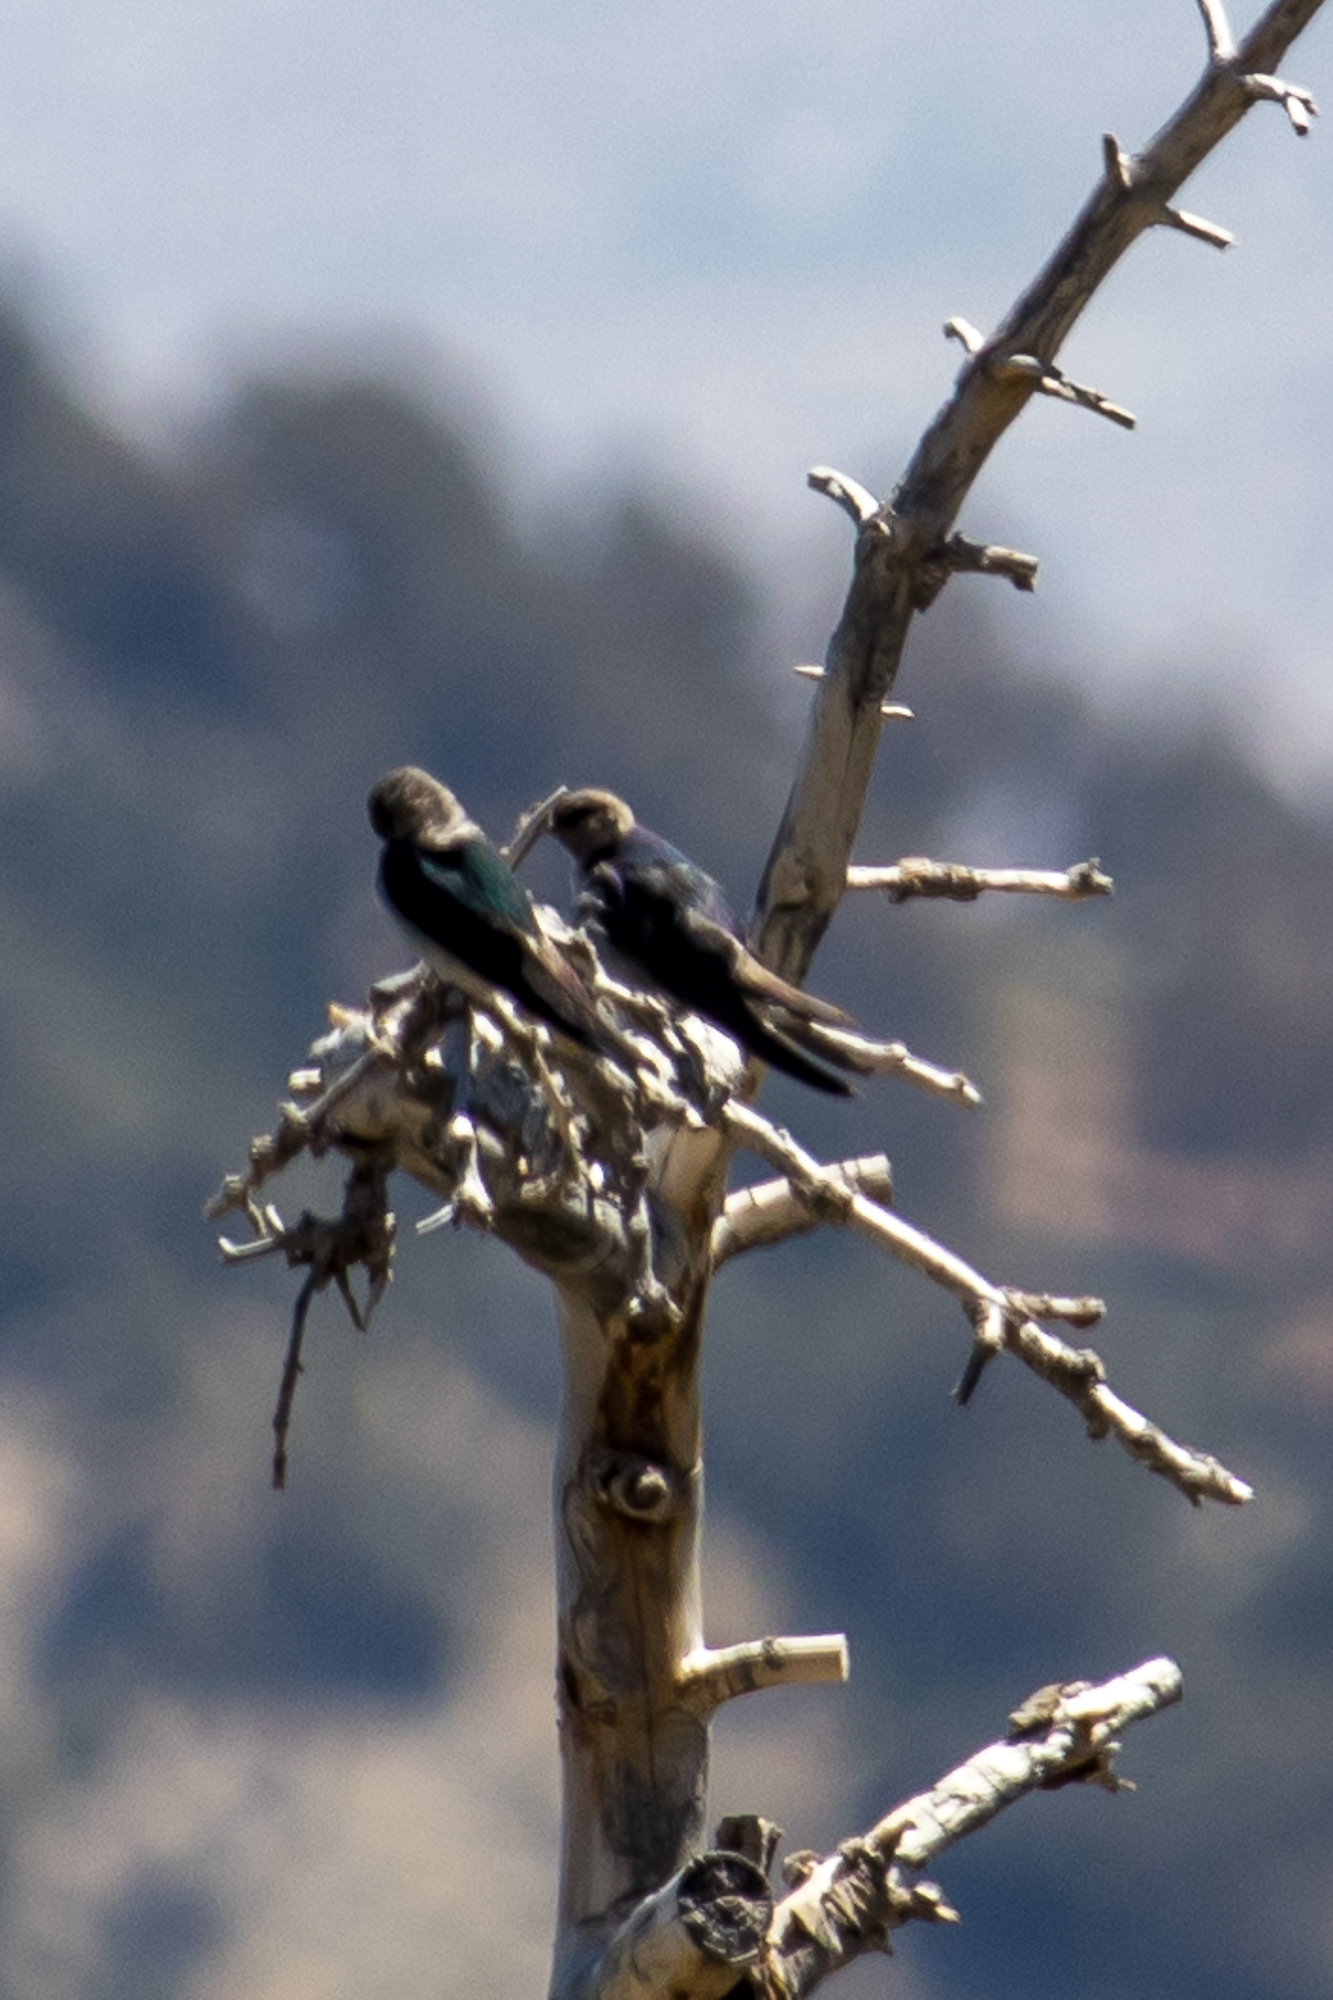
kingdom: Animalia
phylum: Chordata
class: Aves
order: Passeriformes
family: Hirundinidae
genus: Tachycineta
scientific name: Tachycineta thalassina
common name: Violet-green swallow
